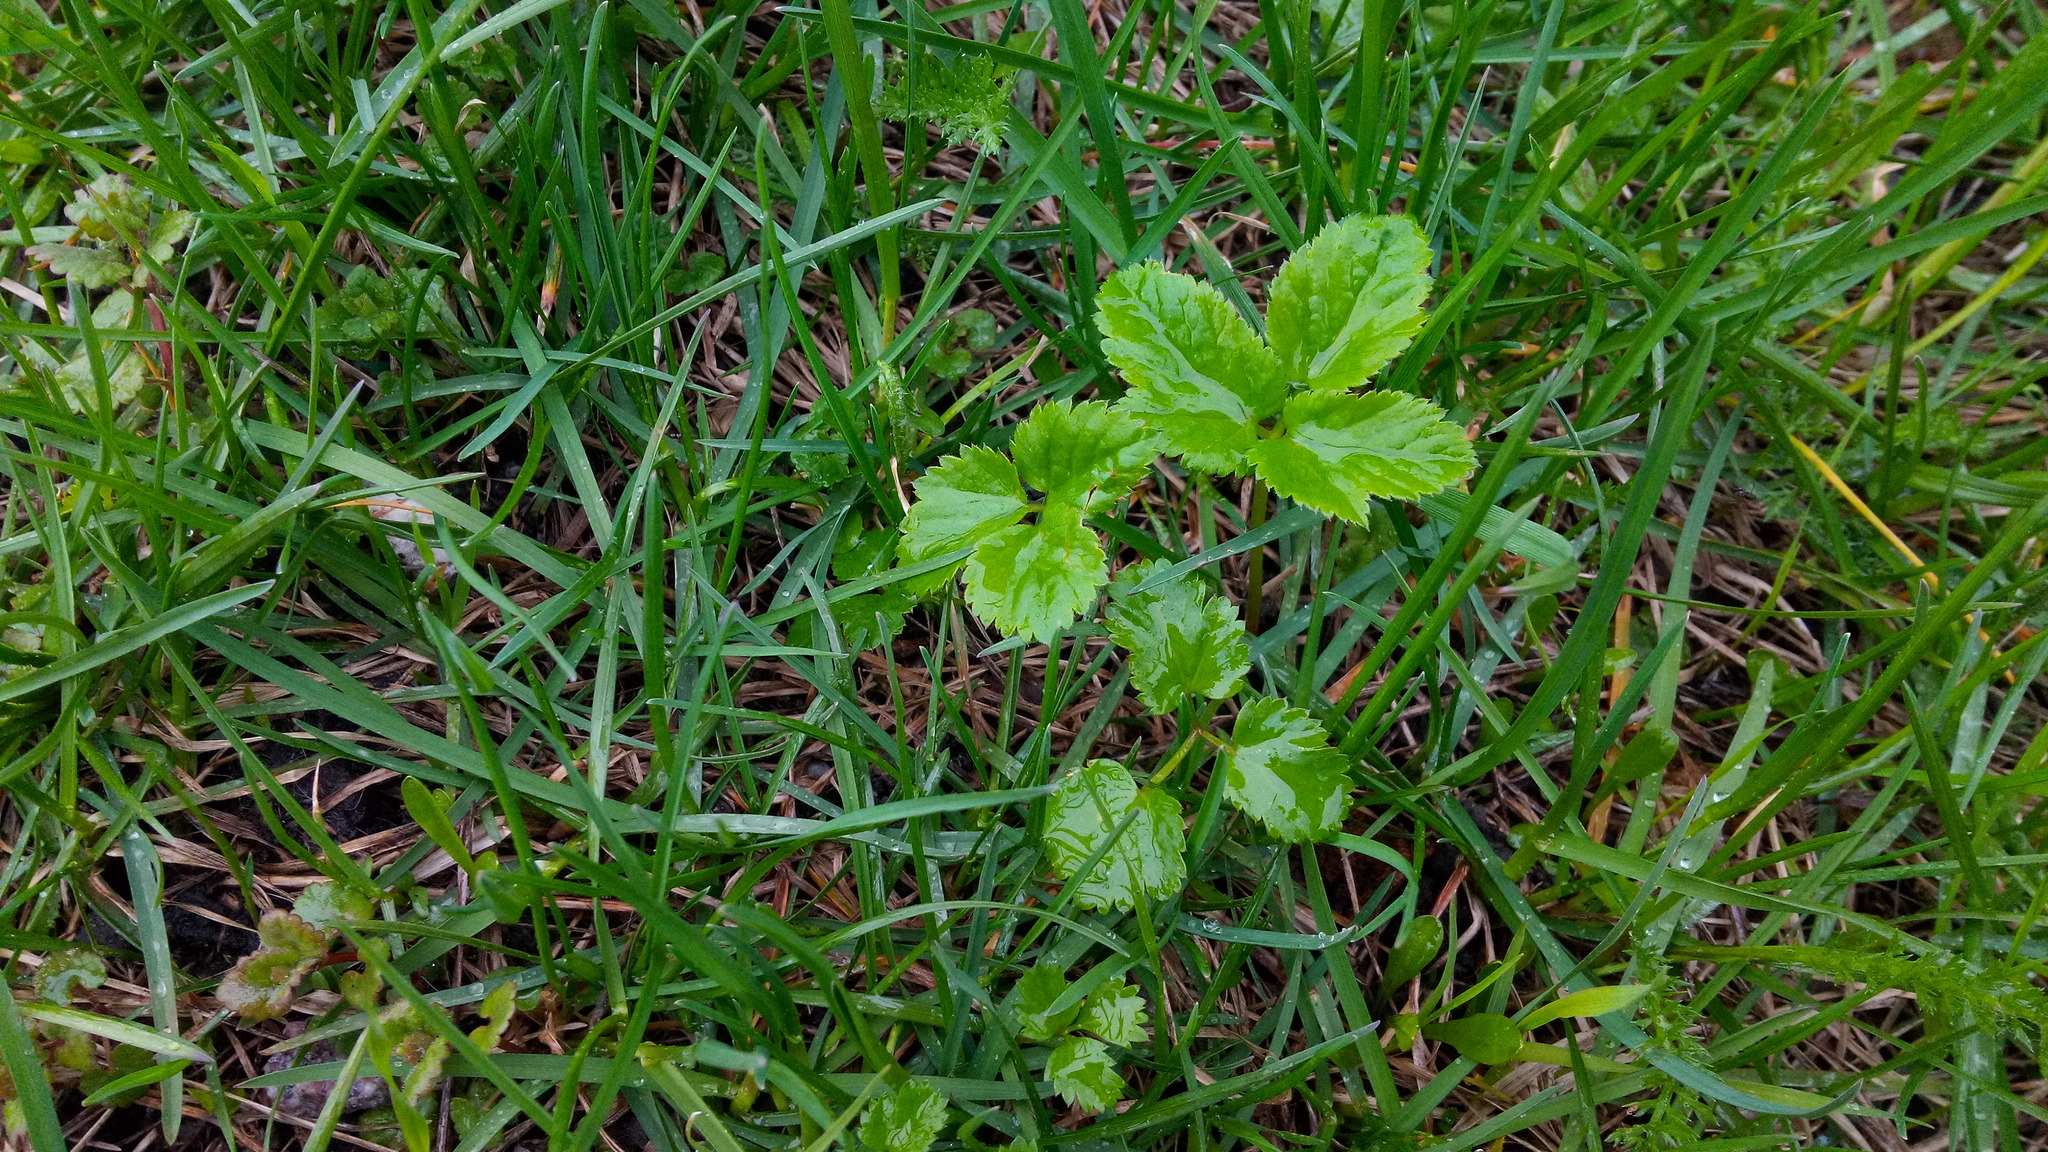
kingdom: Plantae
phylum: Tracheophyta
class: Magnoliopsida
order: Apiales
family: Apiaceae
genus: Aegopodium
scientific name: Aegopodium podagraria
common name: Ground-elder
